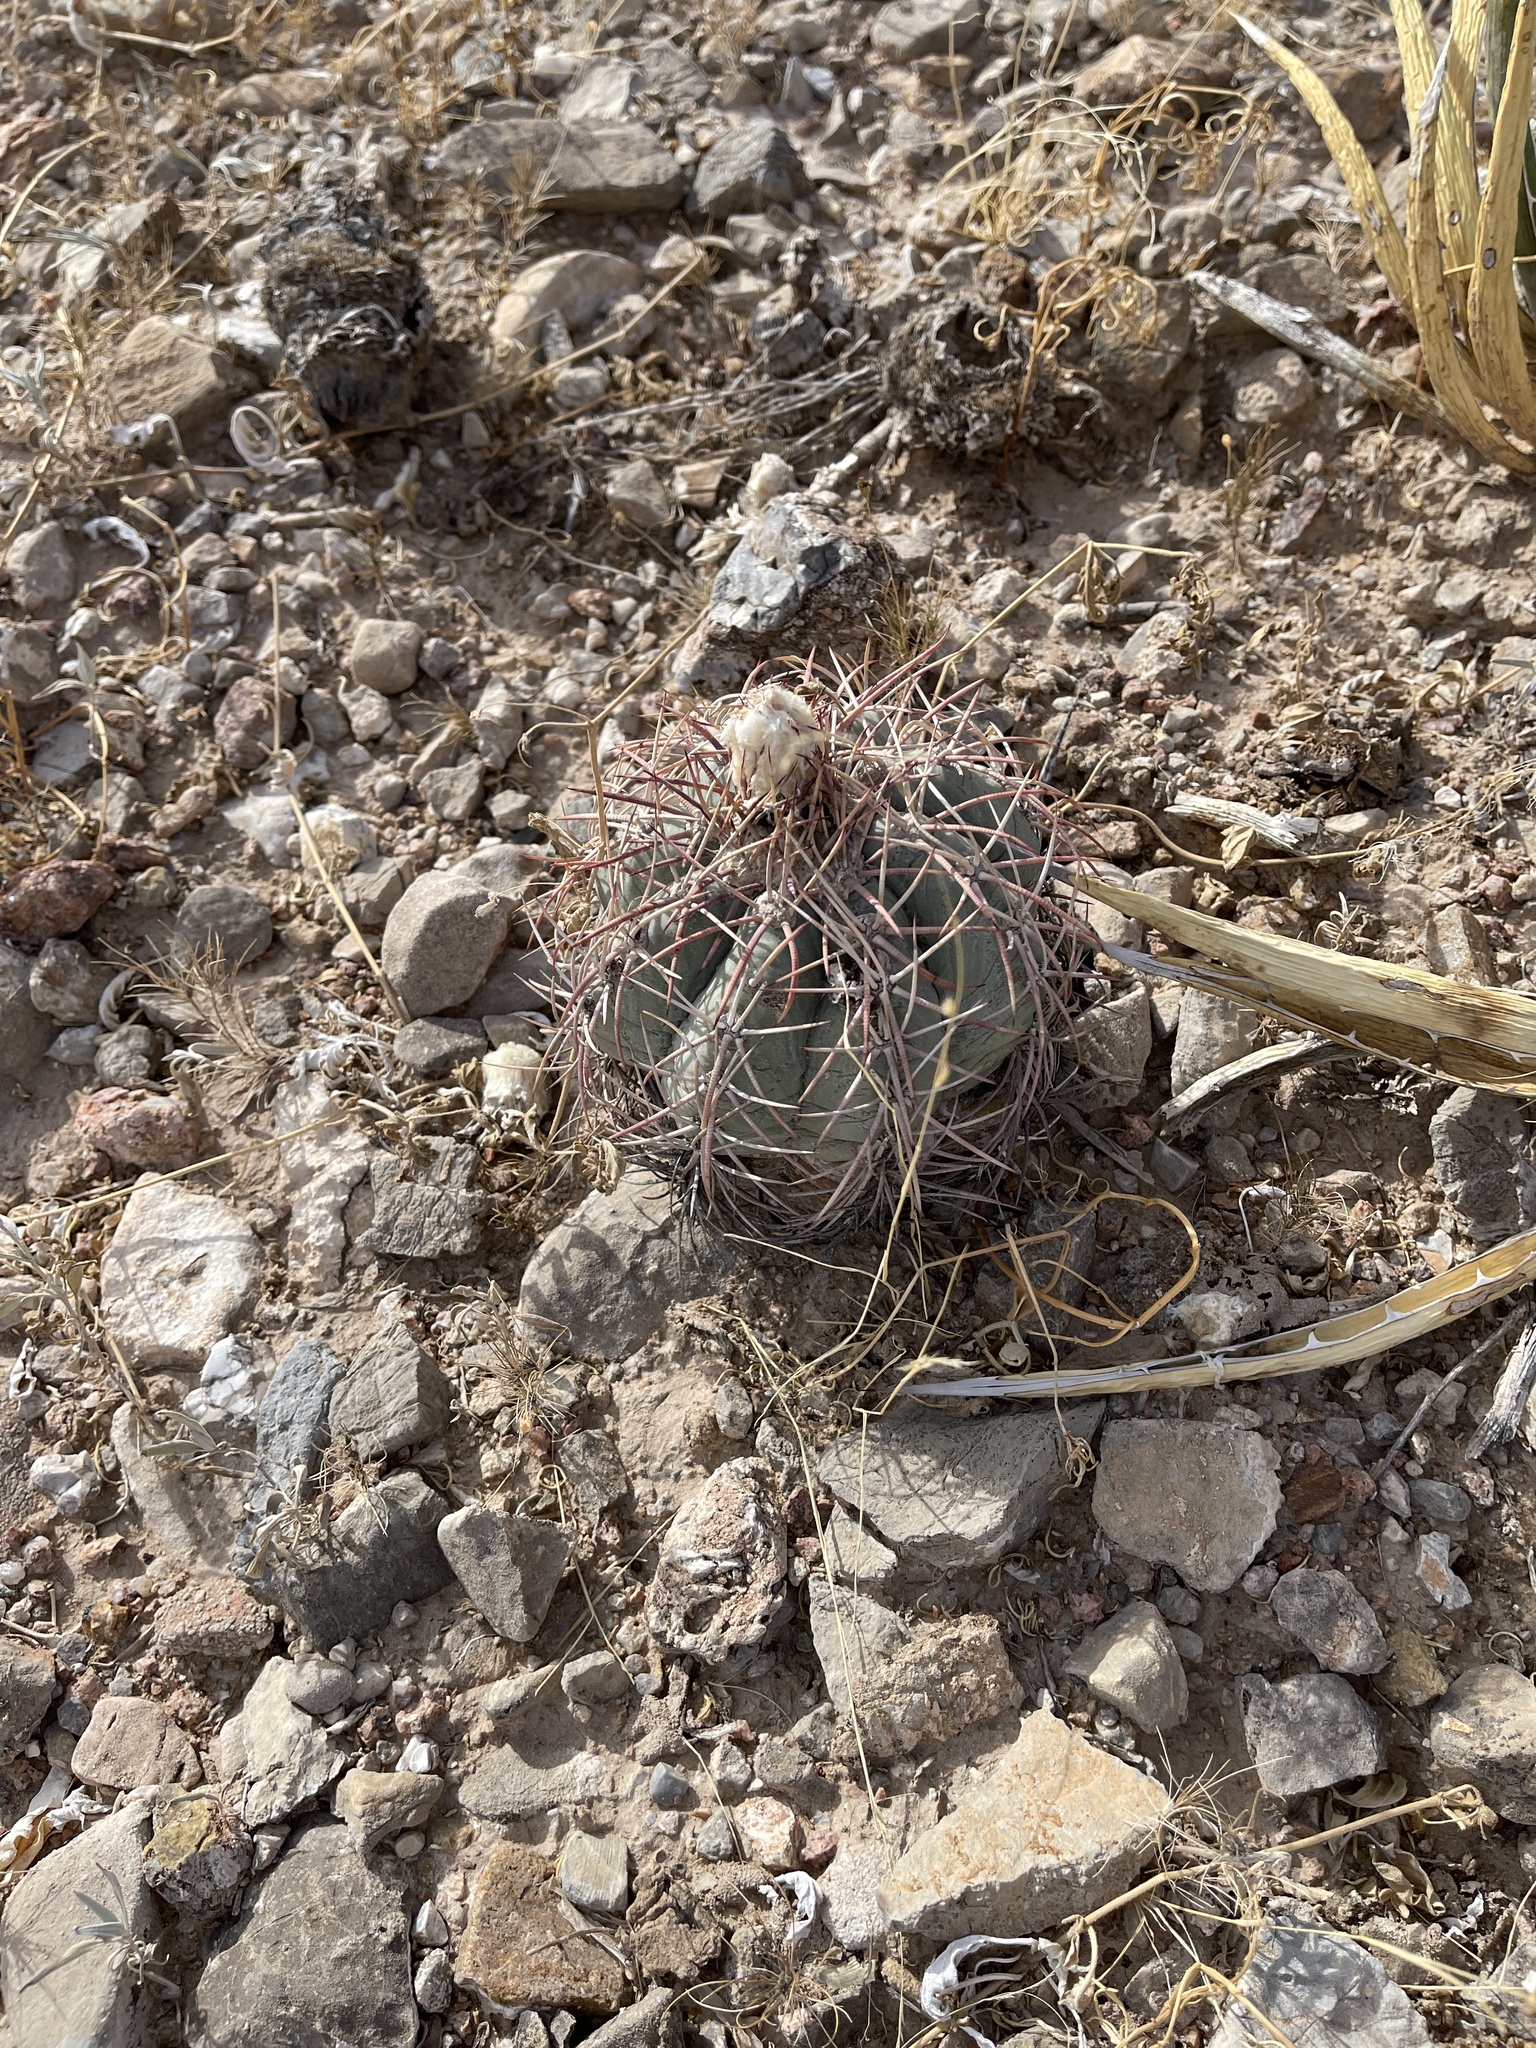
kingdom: Plantae
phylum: Tracheophyta
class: Magnoliopsida
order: Caryophyllales
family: Cactaceae
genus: Echinocactus
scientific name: Echinocactus horizonthalonius
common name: Devilshead
